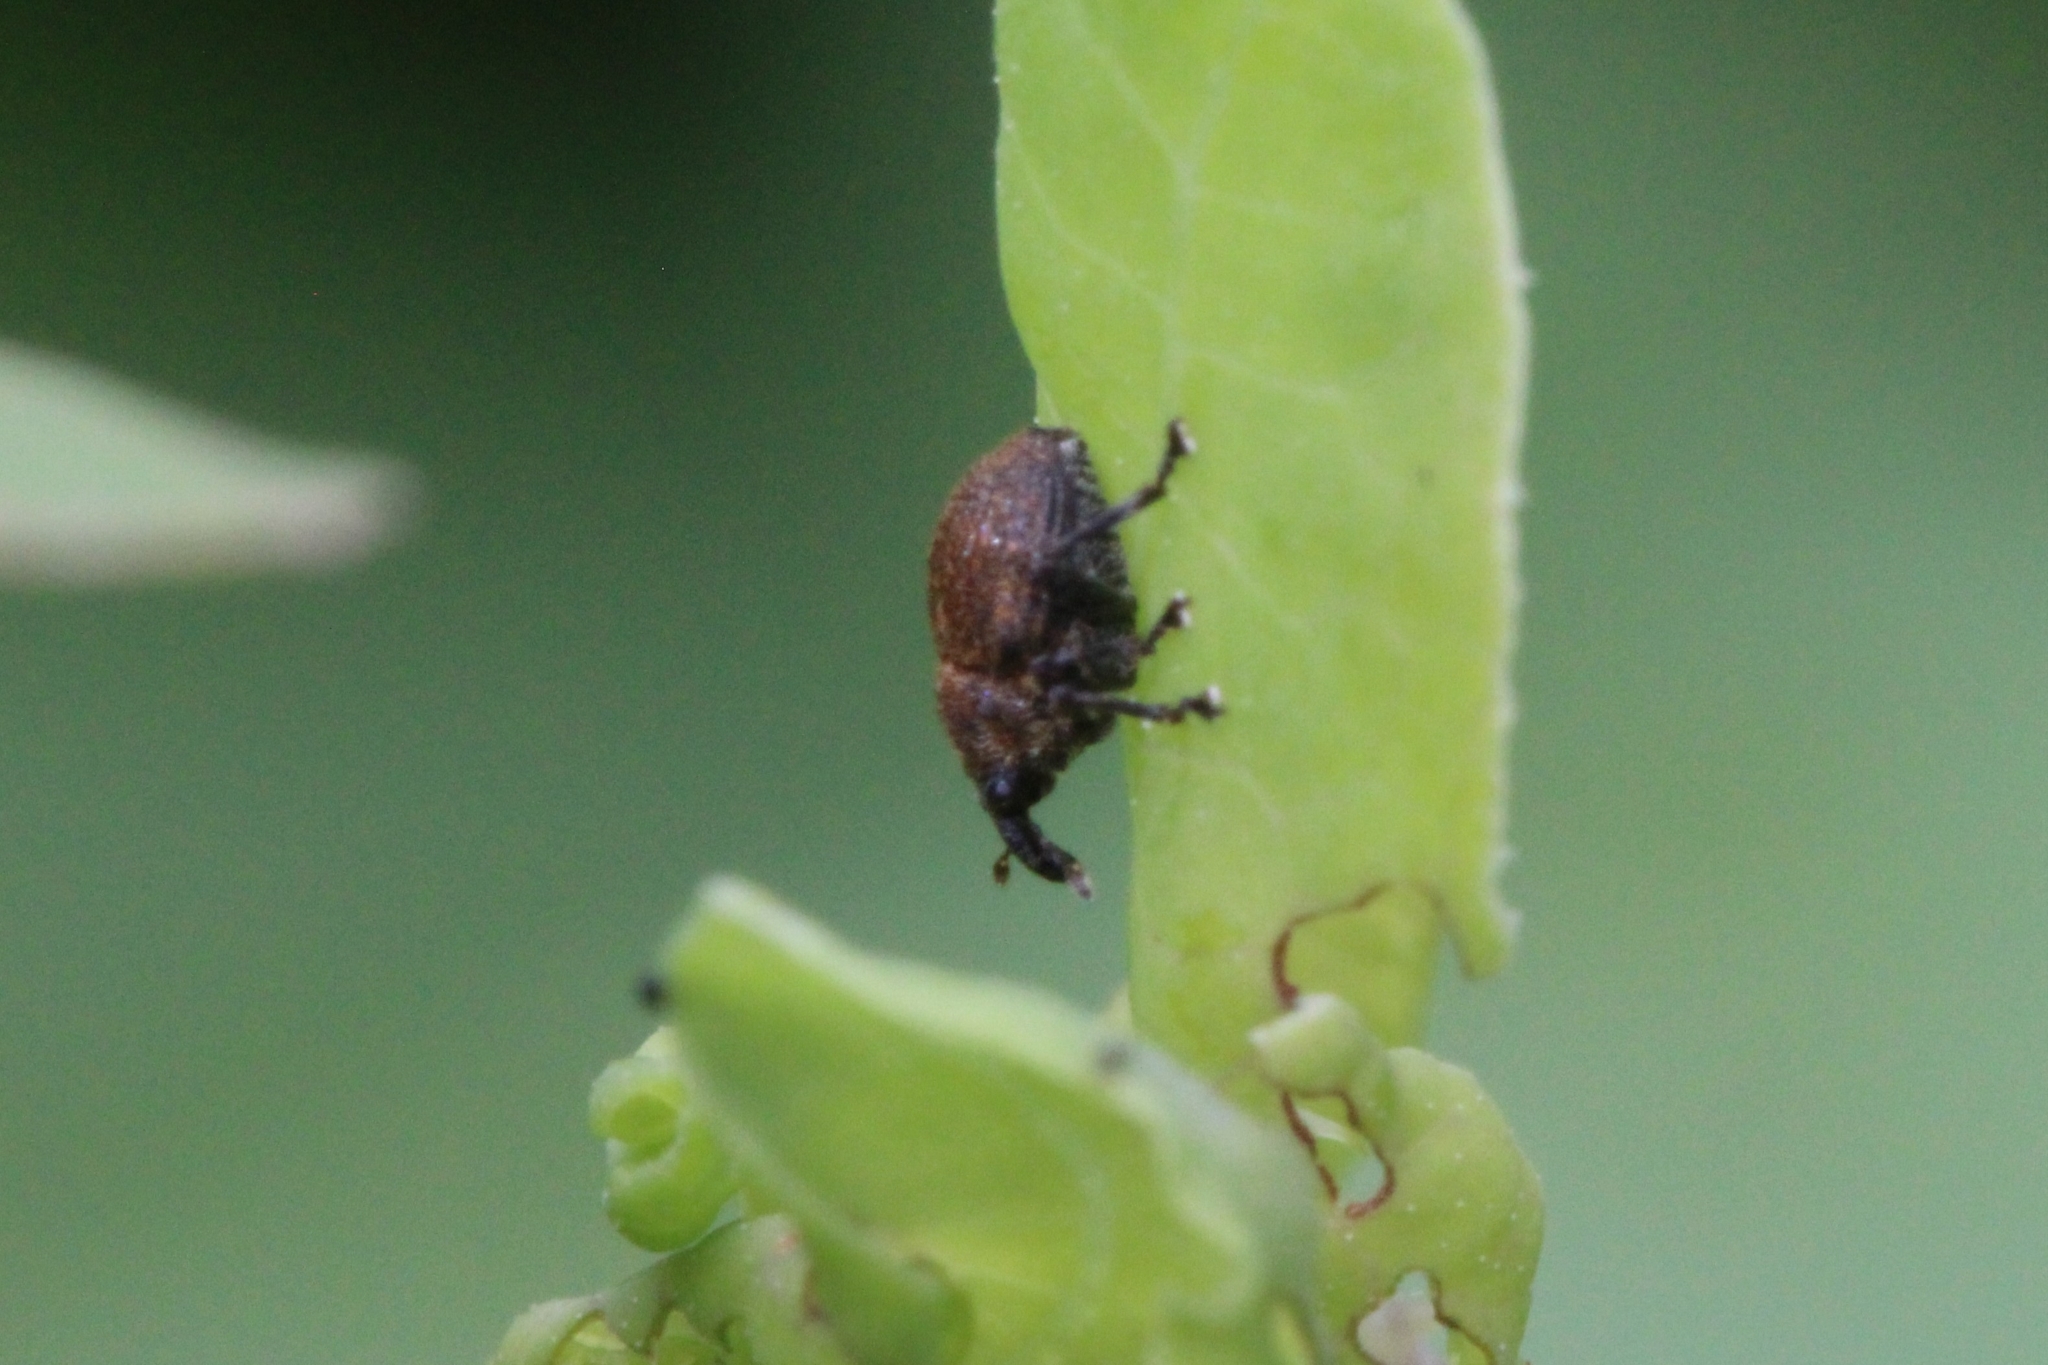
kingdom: Animalia
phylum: Arthropoda
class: Insecta
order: Coleoptera
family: Curculionidae
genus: Rhinoncomimus
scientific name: Rhinoncomimus latipes
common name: Chinese weevil
